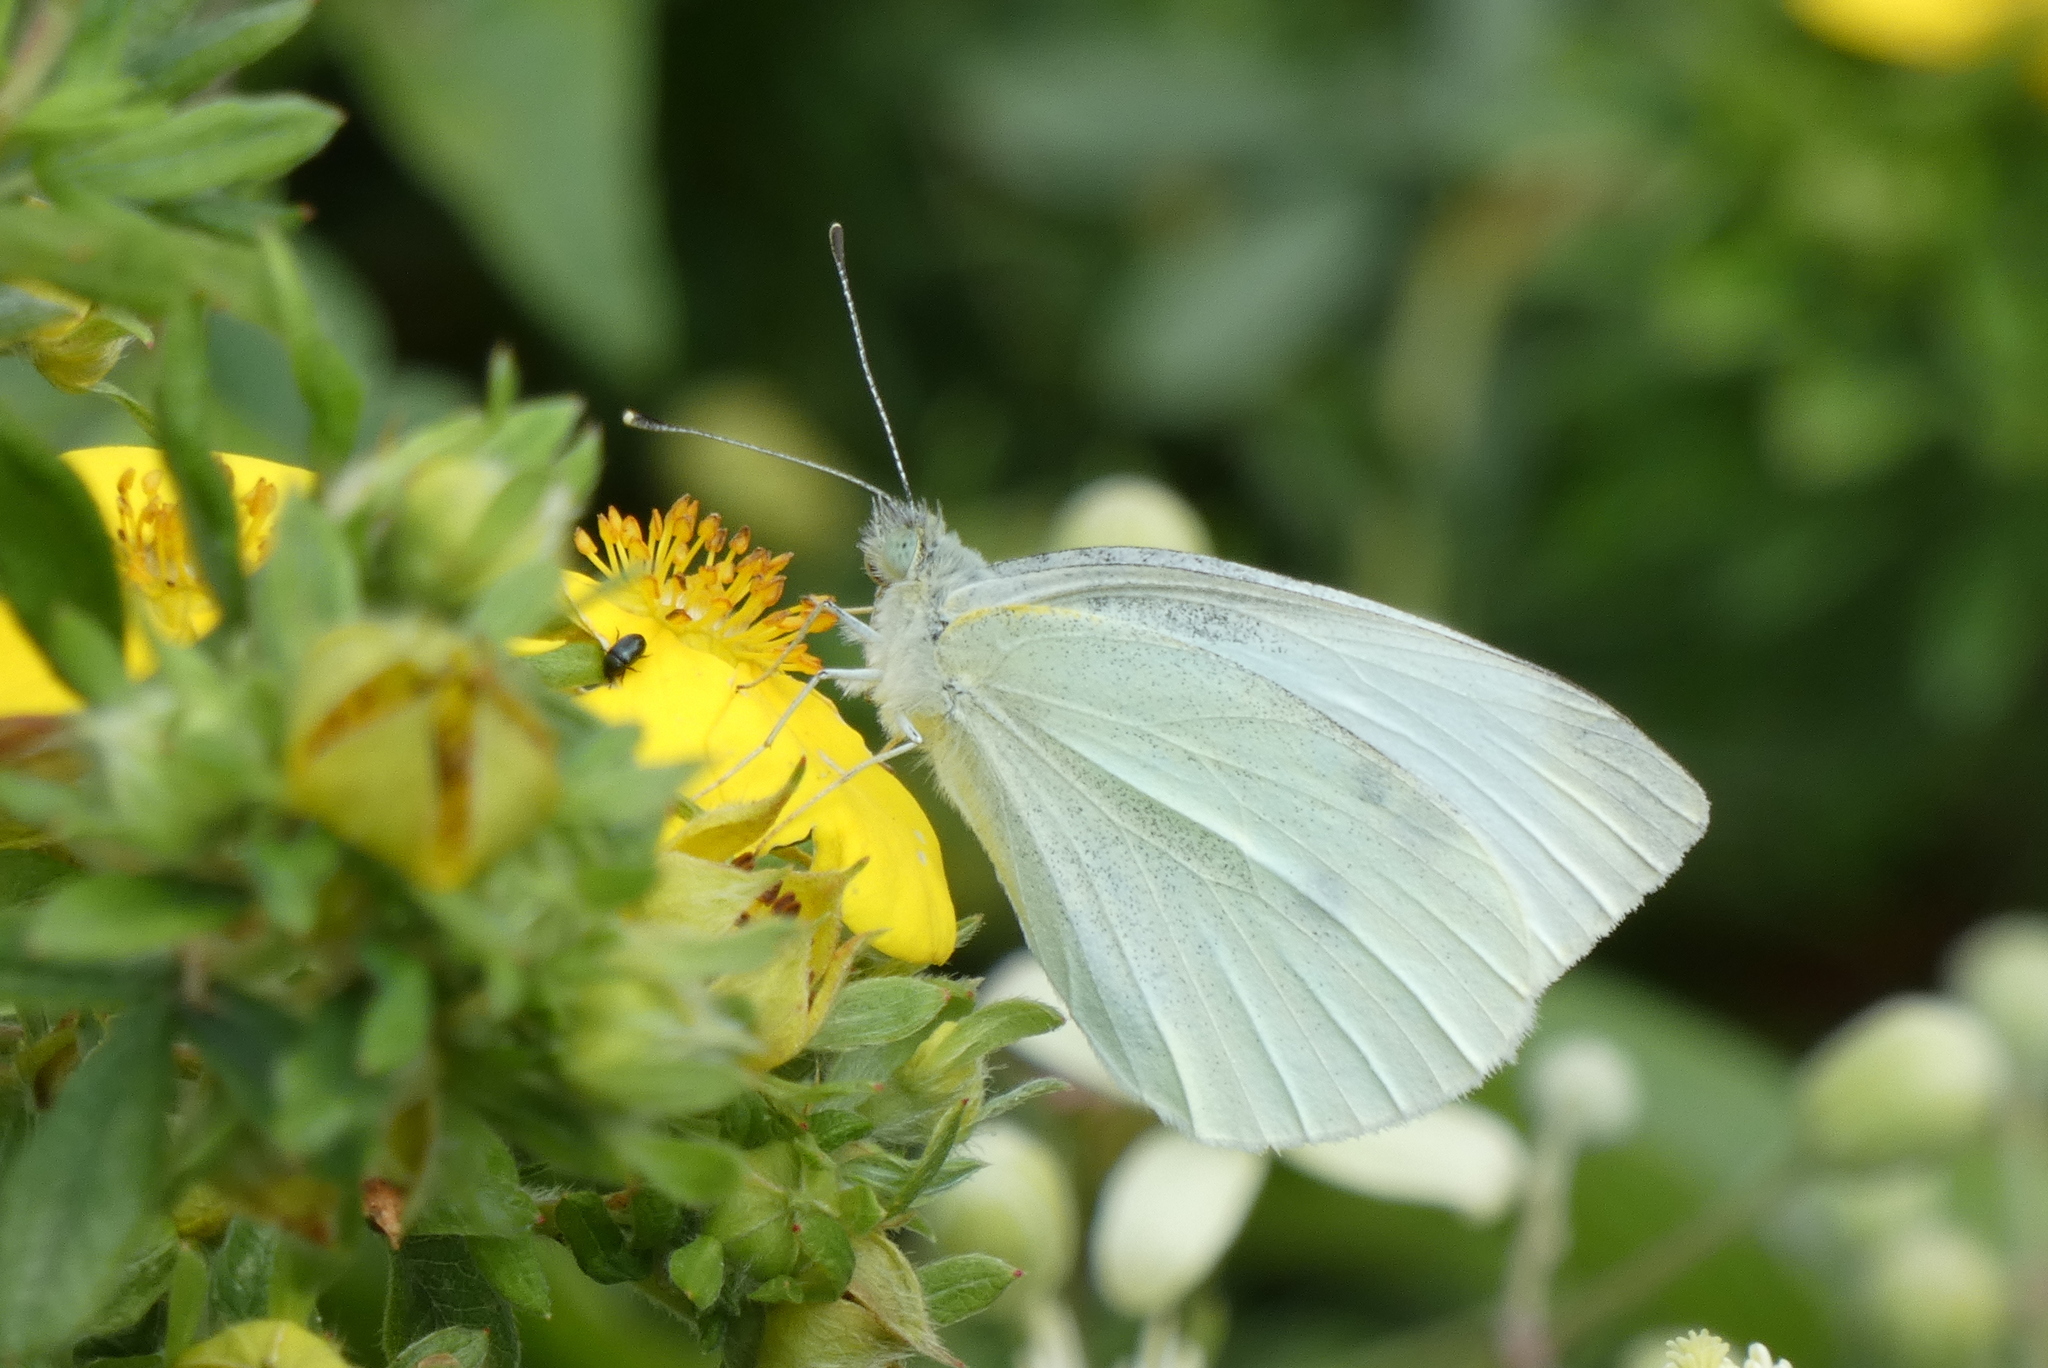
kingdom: Animalia
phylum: Arthropoda
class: Insecta
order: Lepidoptera
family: Pieridae
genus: Pieris
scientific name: Pieris rapae
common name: Small white
